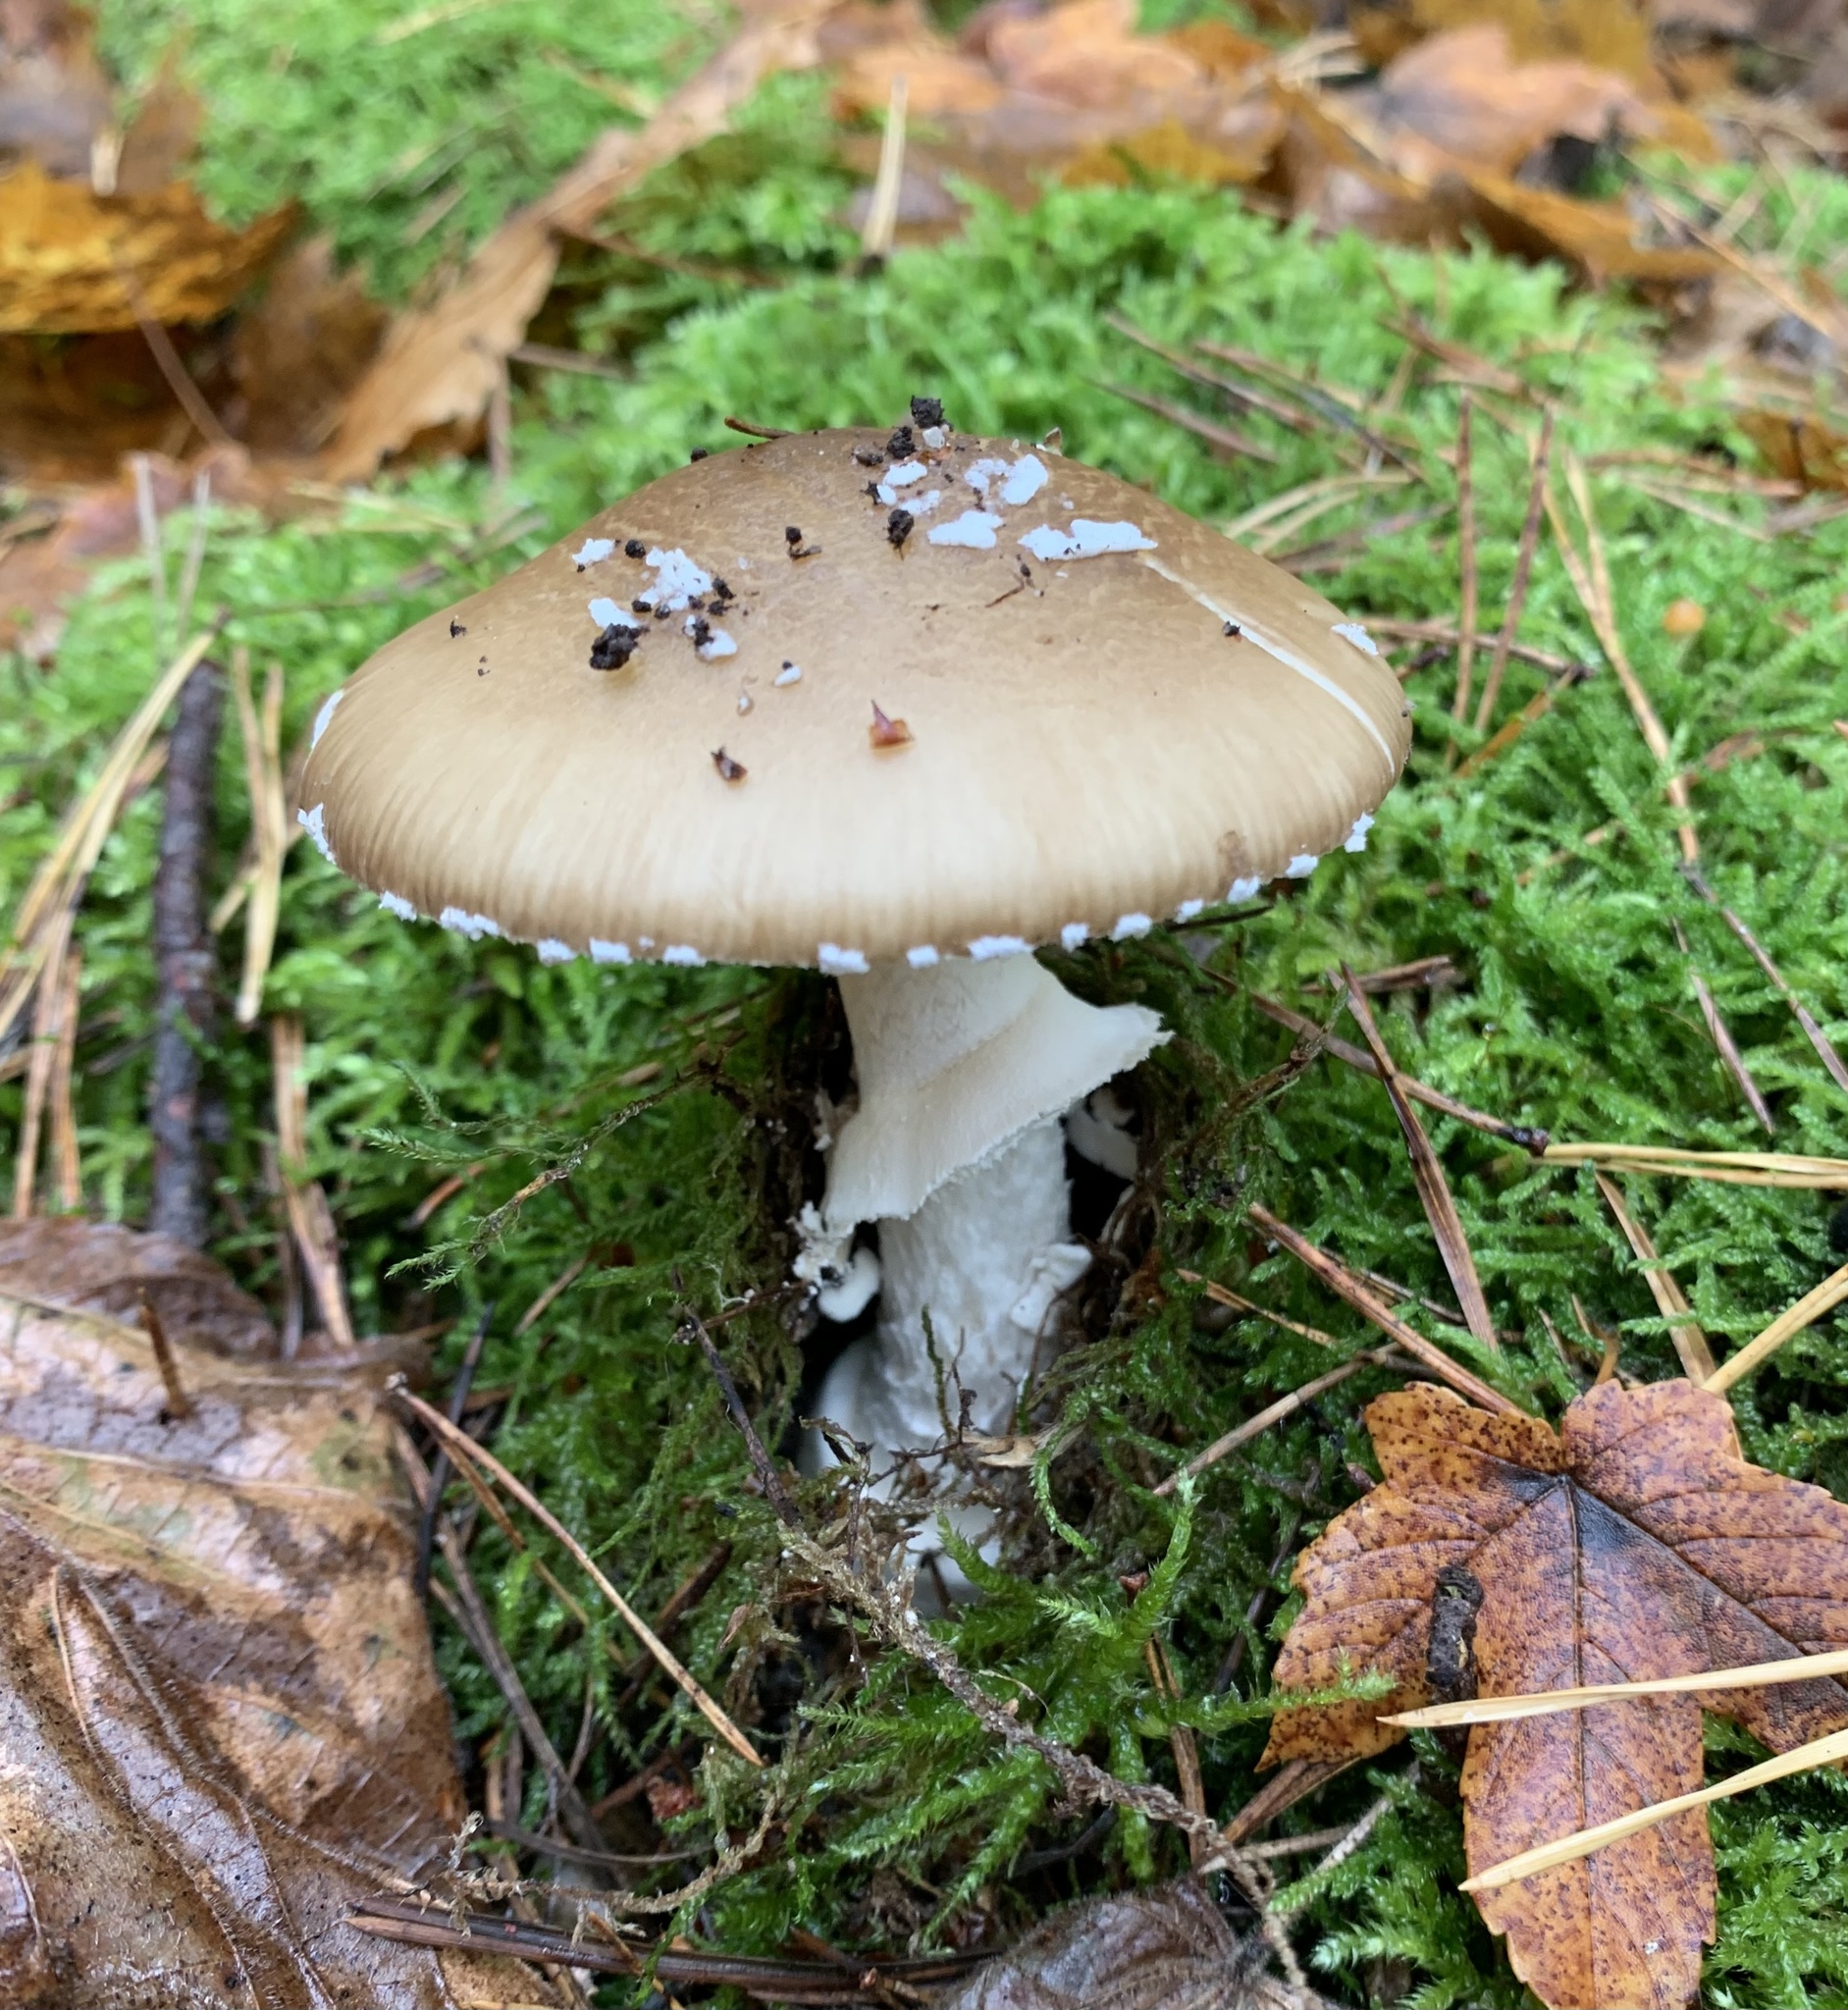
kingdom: Fungi
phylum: Basidiomycota
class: Agaricomycetes
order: Agaricales
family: Amanitaceae
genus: Amanita
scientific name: Amanita pantherina
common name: Panthercap
